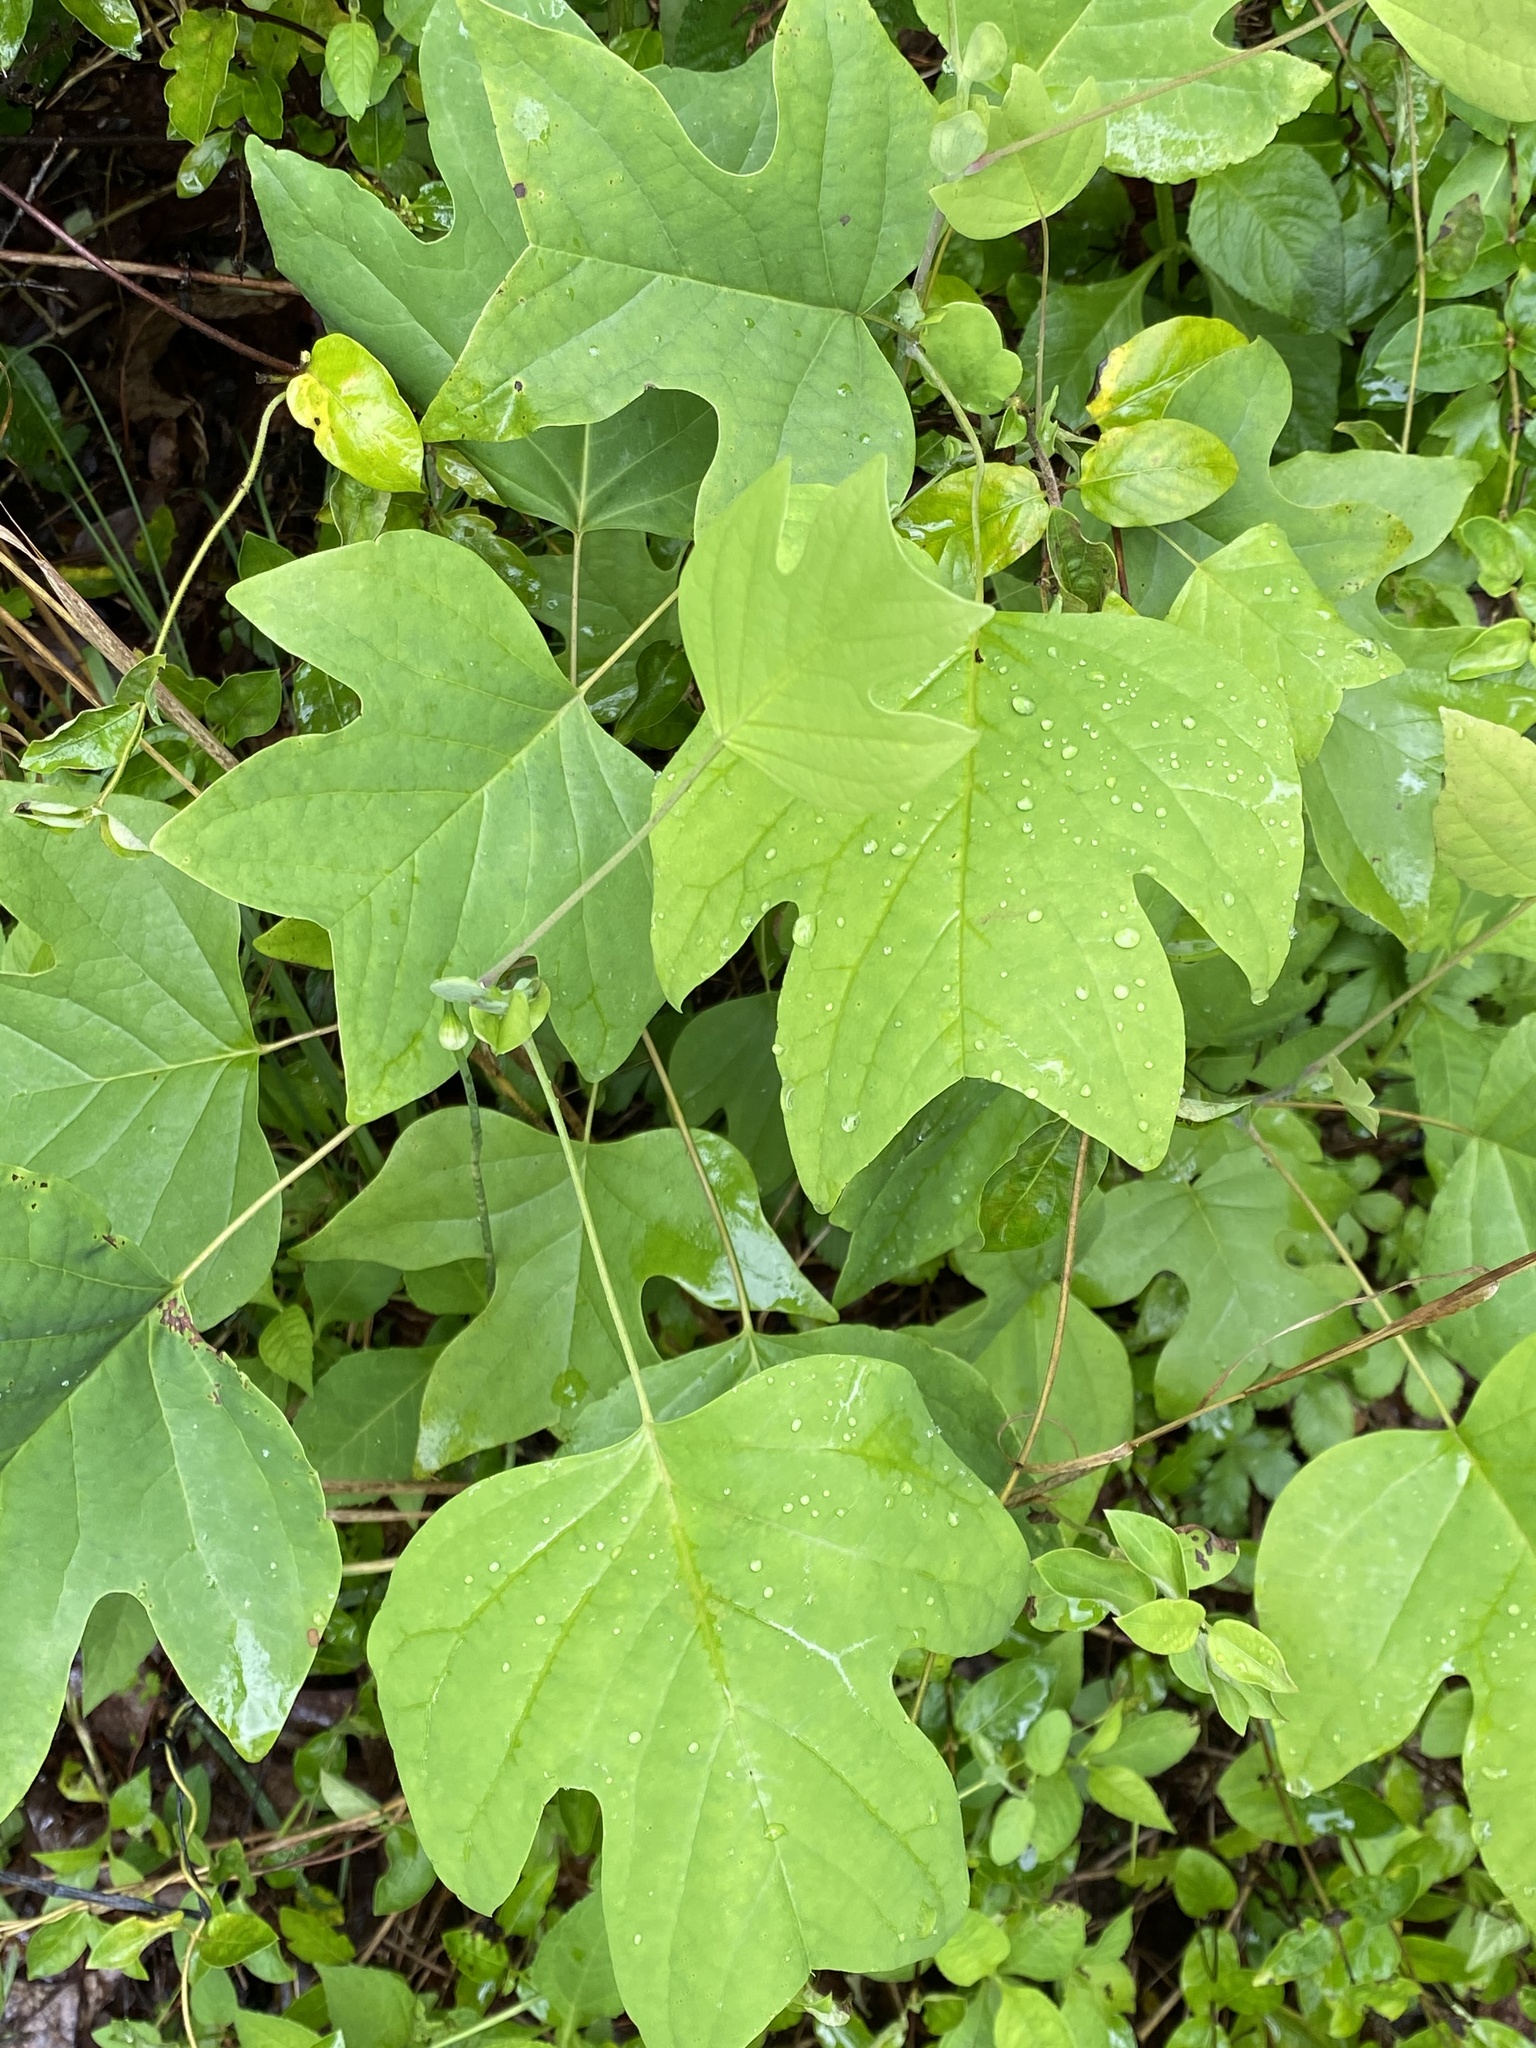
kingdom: Plantae
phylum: Tracheophyta
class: Magnoliopsida
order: Magnoliales
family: Magnoliaceae
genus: Liriodendron
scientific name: Liriodendron tulipifera
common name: Tulip tree
